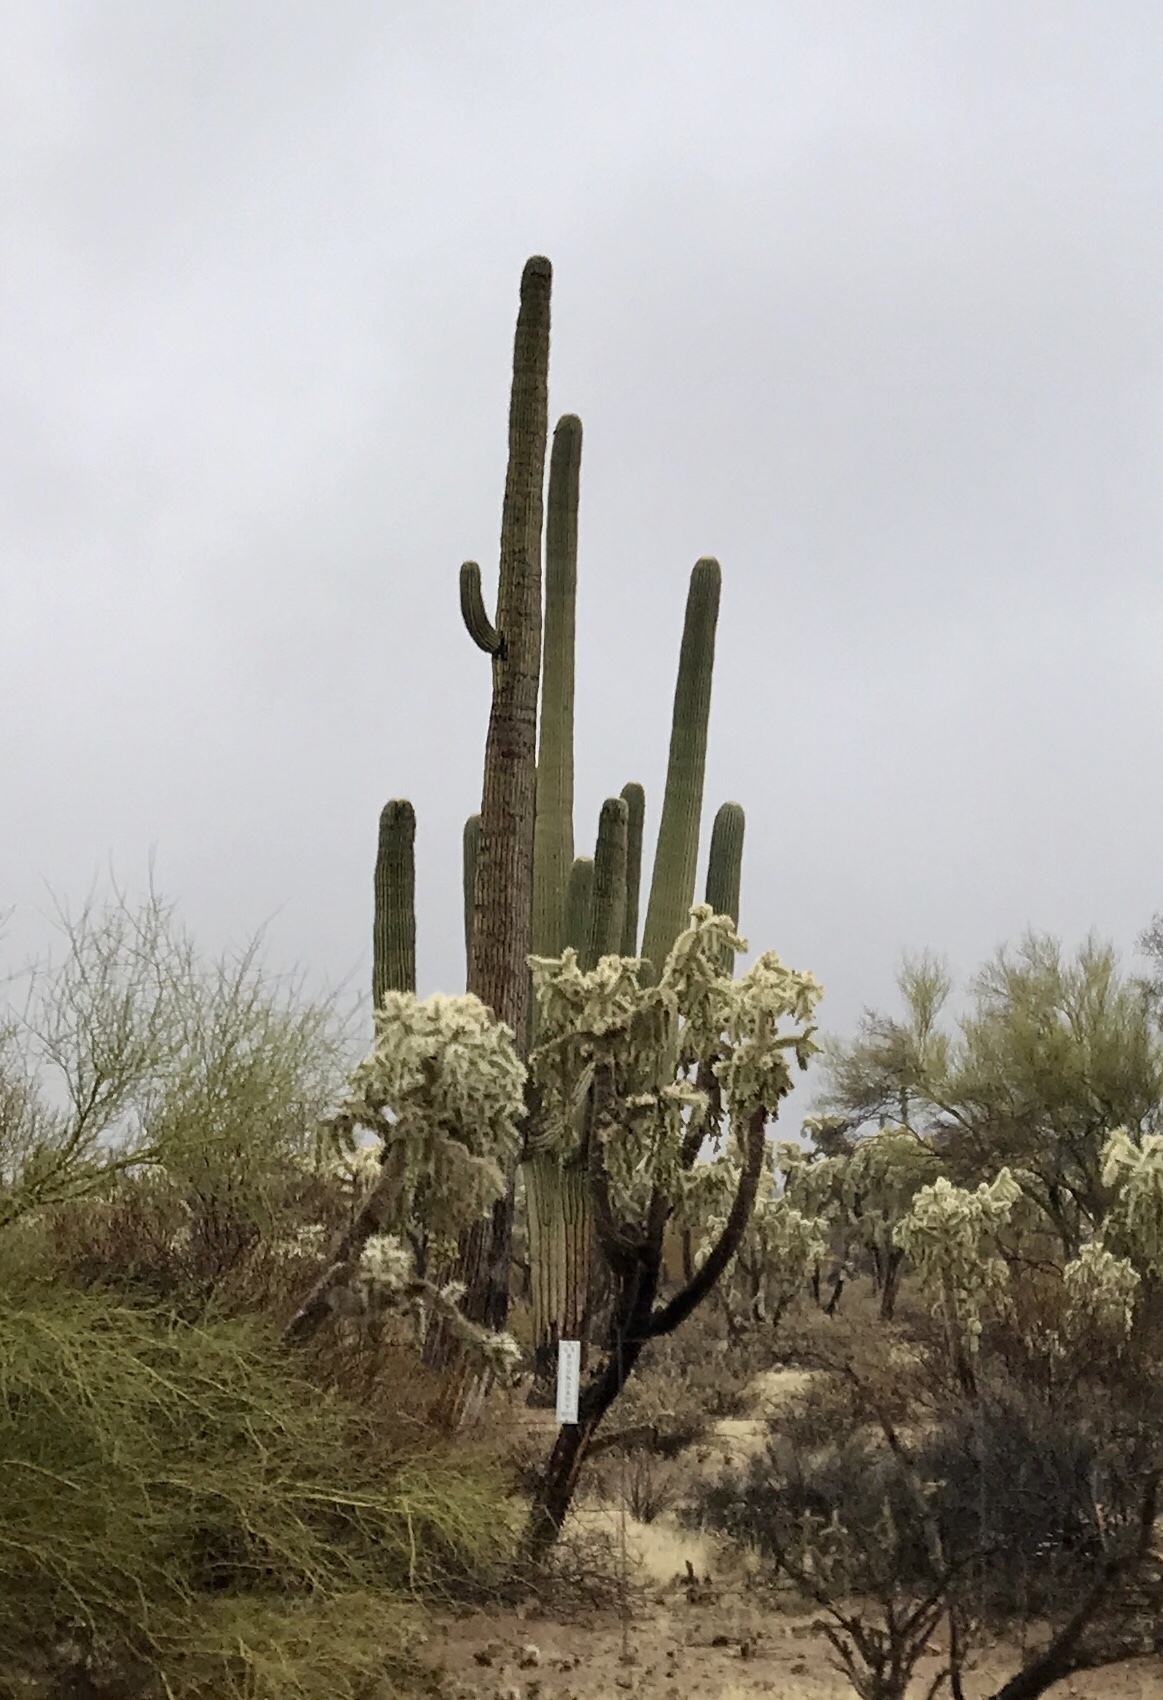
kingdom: Plantae
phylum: Tracheophyta
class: Magnoliopsida
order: Caryophyllales
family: Cactaceae
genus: Carnegiea
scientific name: Carnegiea gigantea
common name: Saguaro
